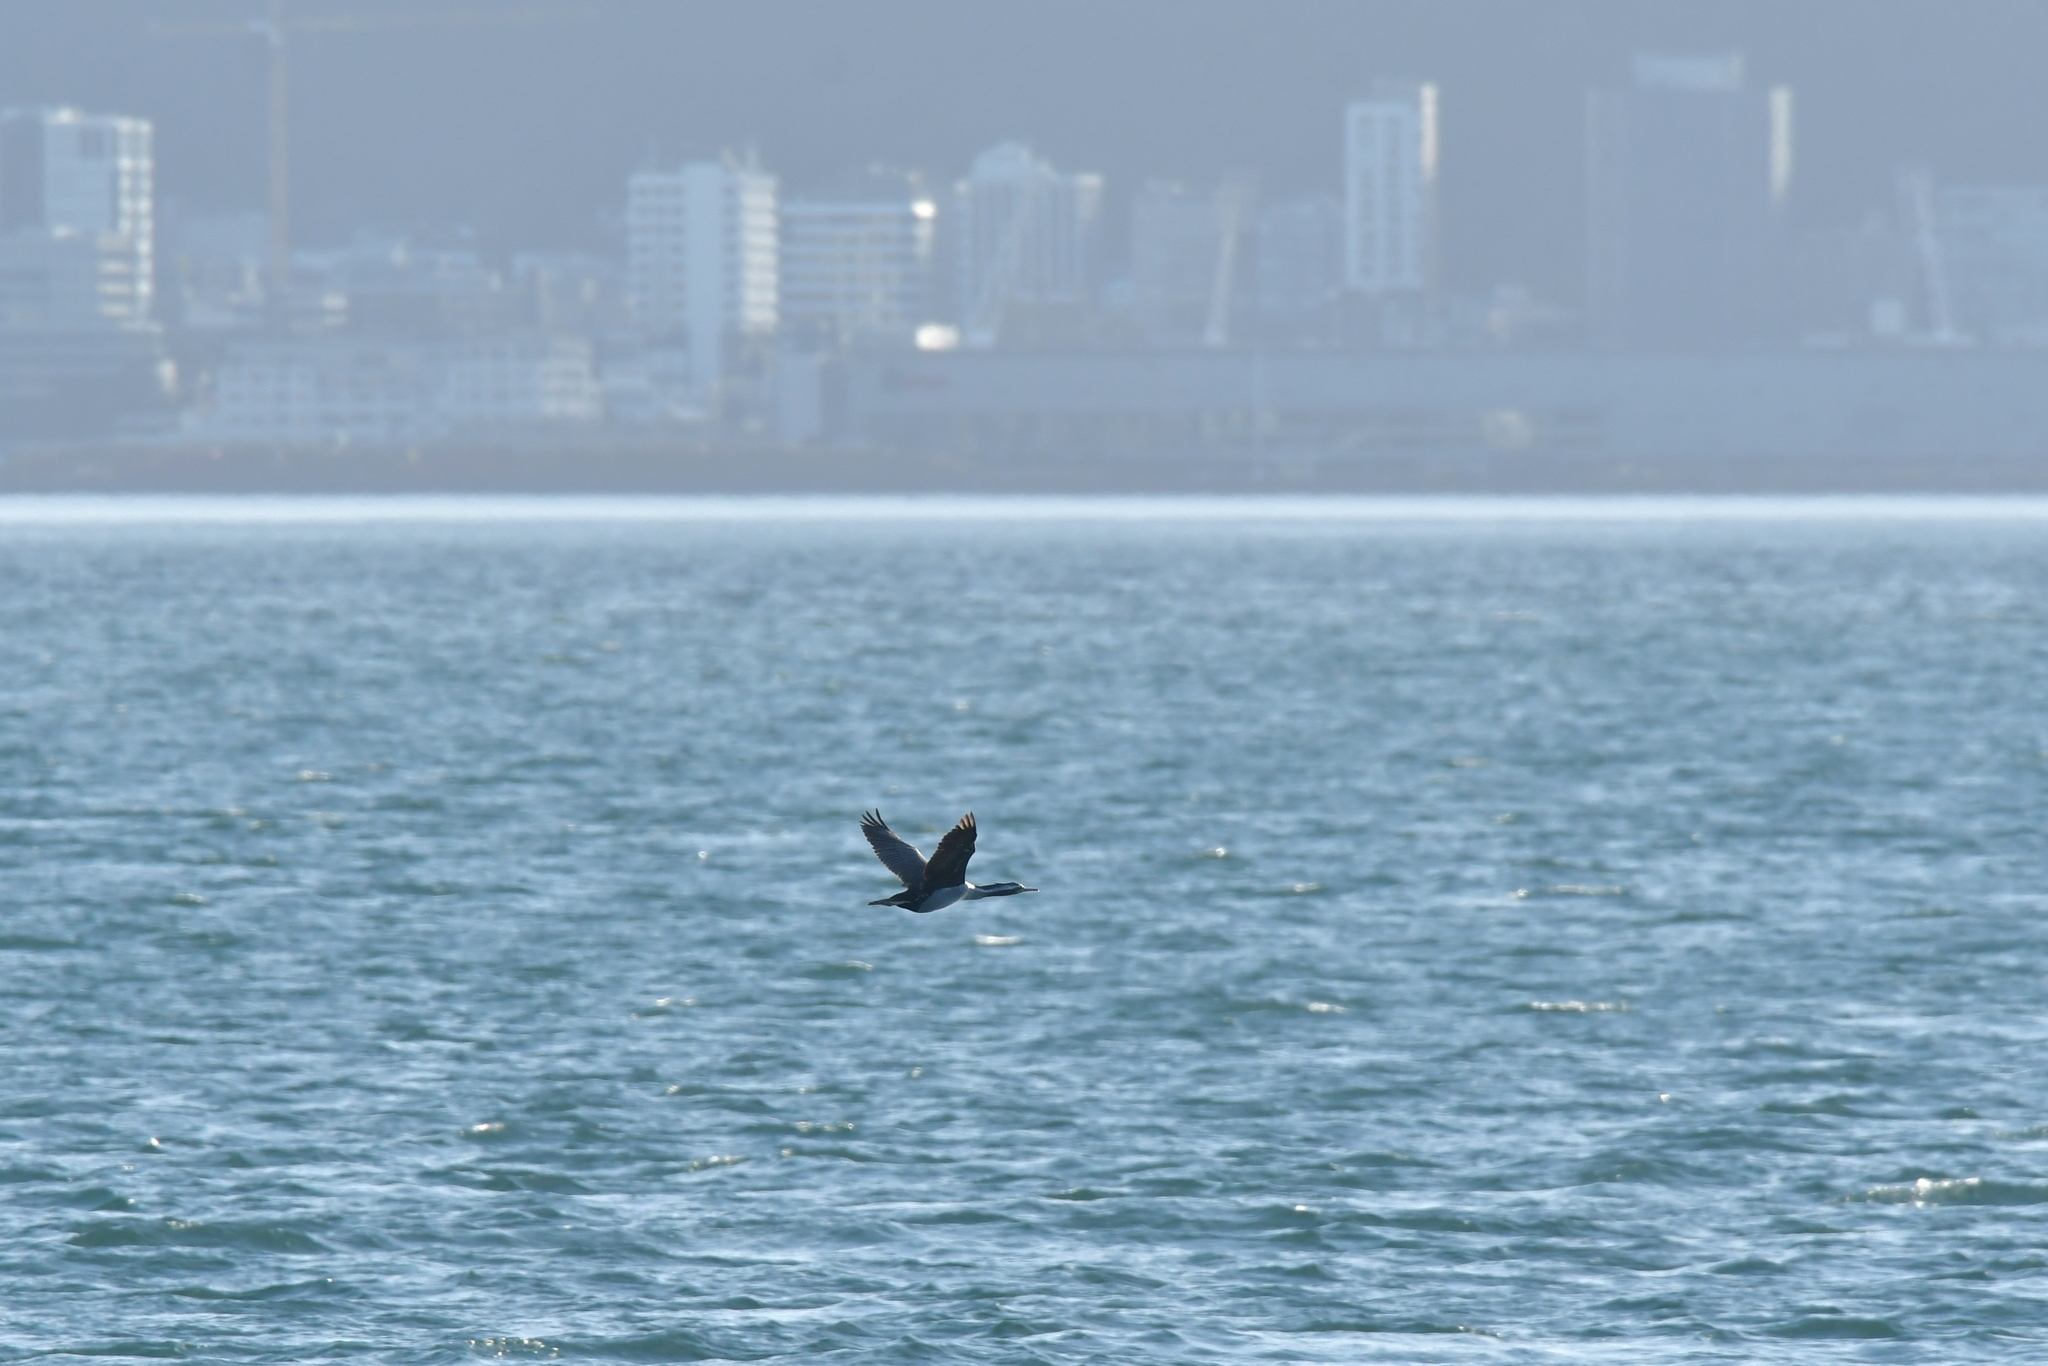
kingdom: Animalia
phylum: Chordata
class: Aves
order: Suliformes
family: Phalacrocoracidae
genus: Phalacrocorax
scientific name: Phalacrocorax punctatus
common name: Spotted shag
